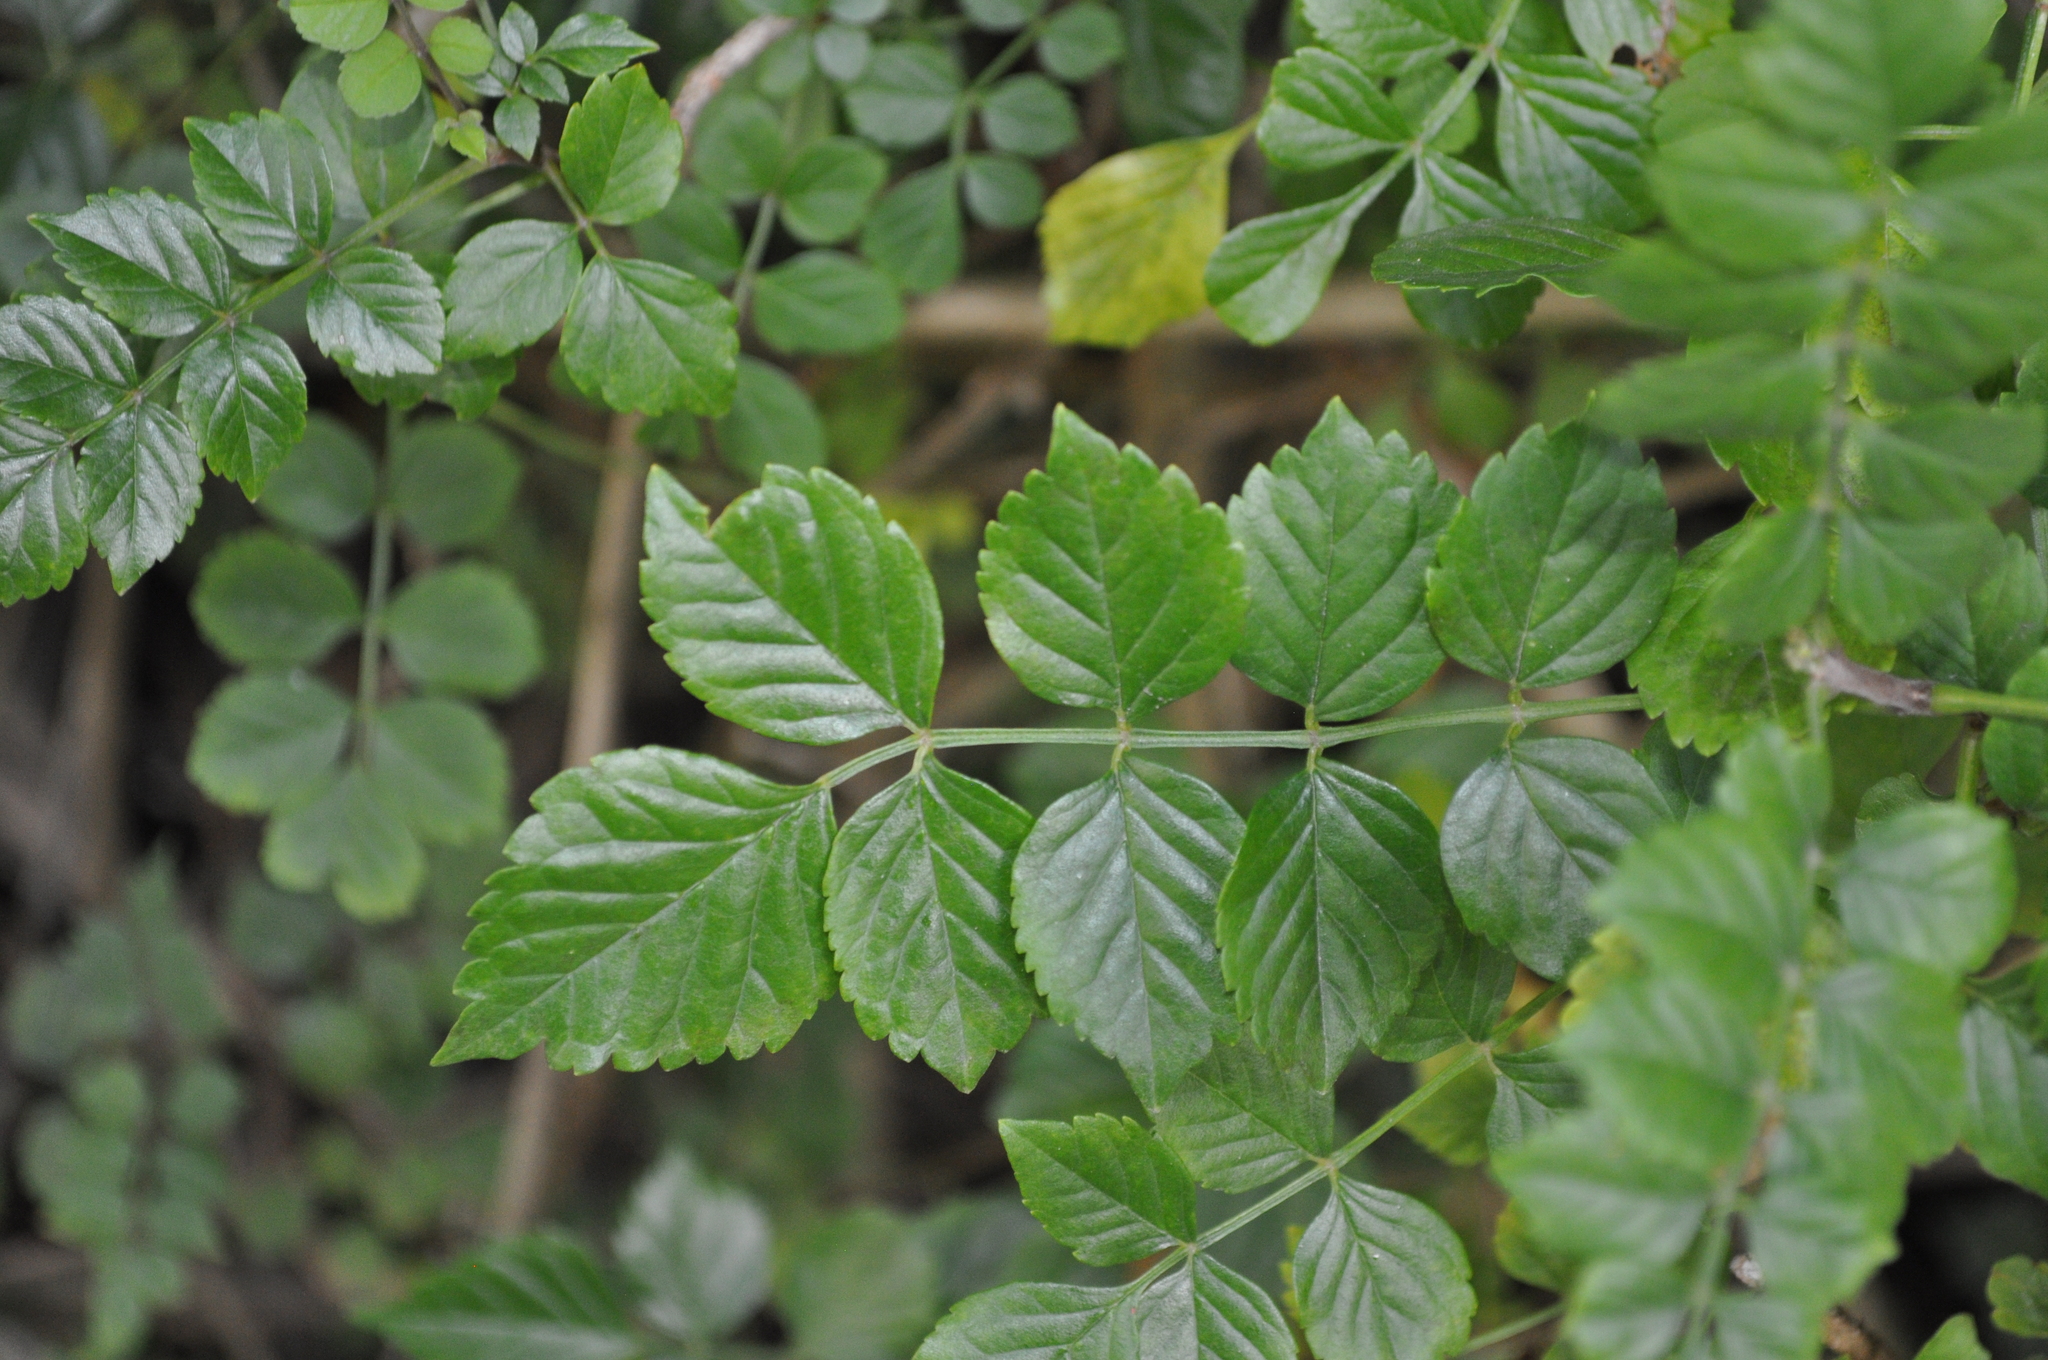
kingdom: Plantae
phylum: Tracheophyta
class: Magnoliopsida
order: Lamiales
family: Bignoniaceae
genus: Tecomaria
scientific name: Tecomaria capensis
